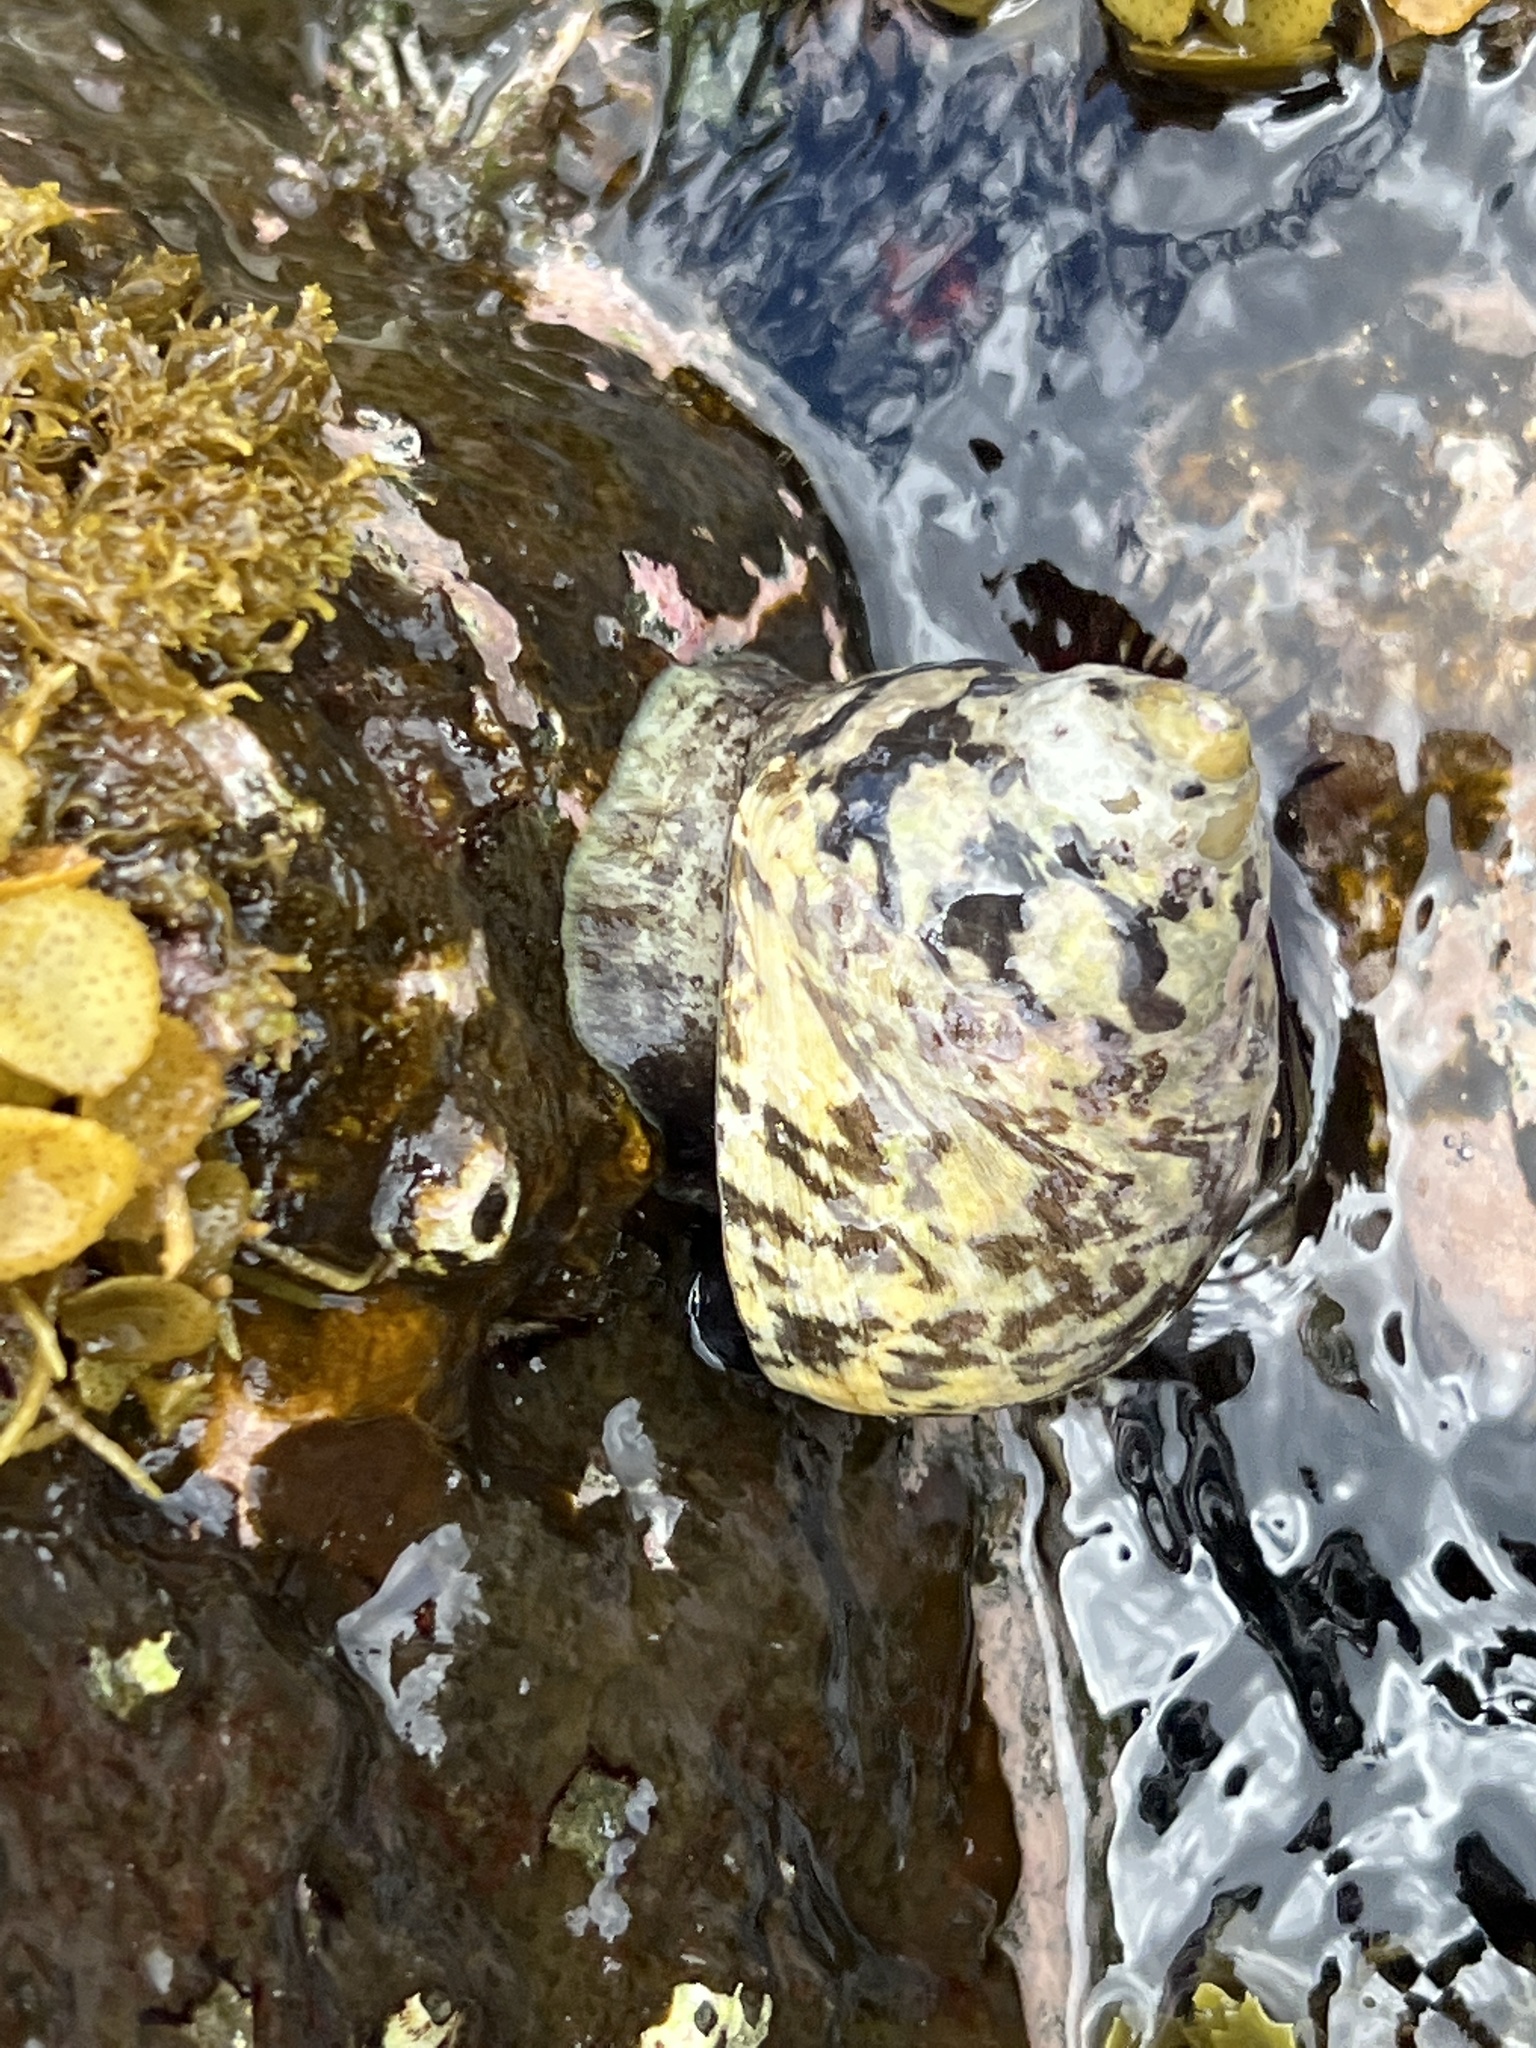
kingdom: Animalia
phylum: Mollusca
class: Gastropoda
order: Trochida
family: Tegulidae
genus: Cittarium
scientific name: Cittarium pica
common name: West indian topshell
